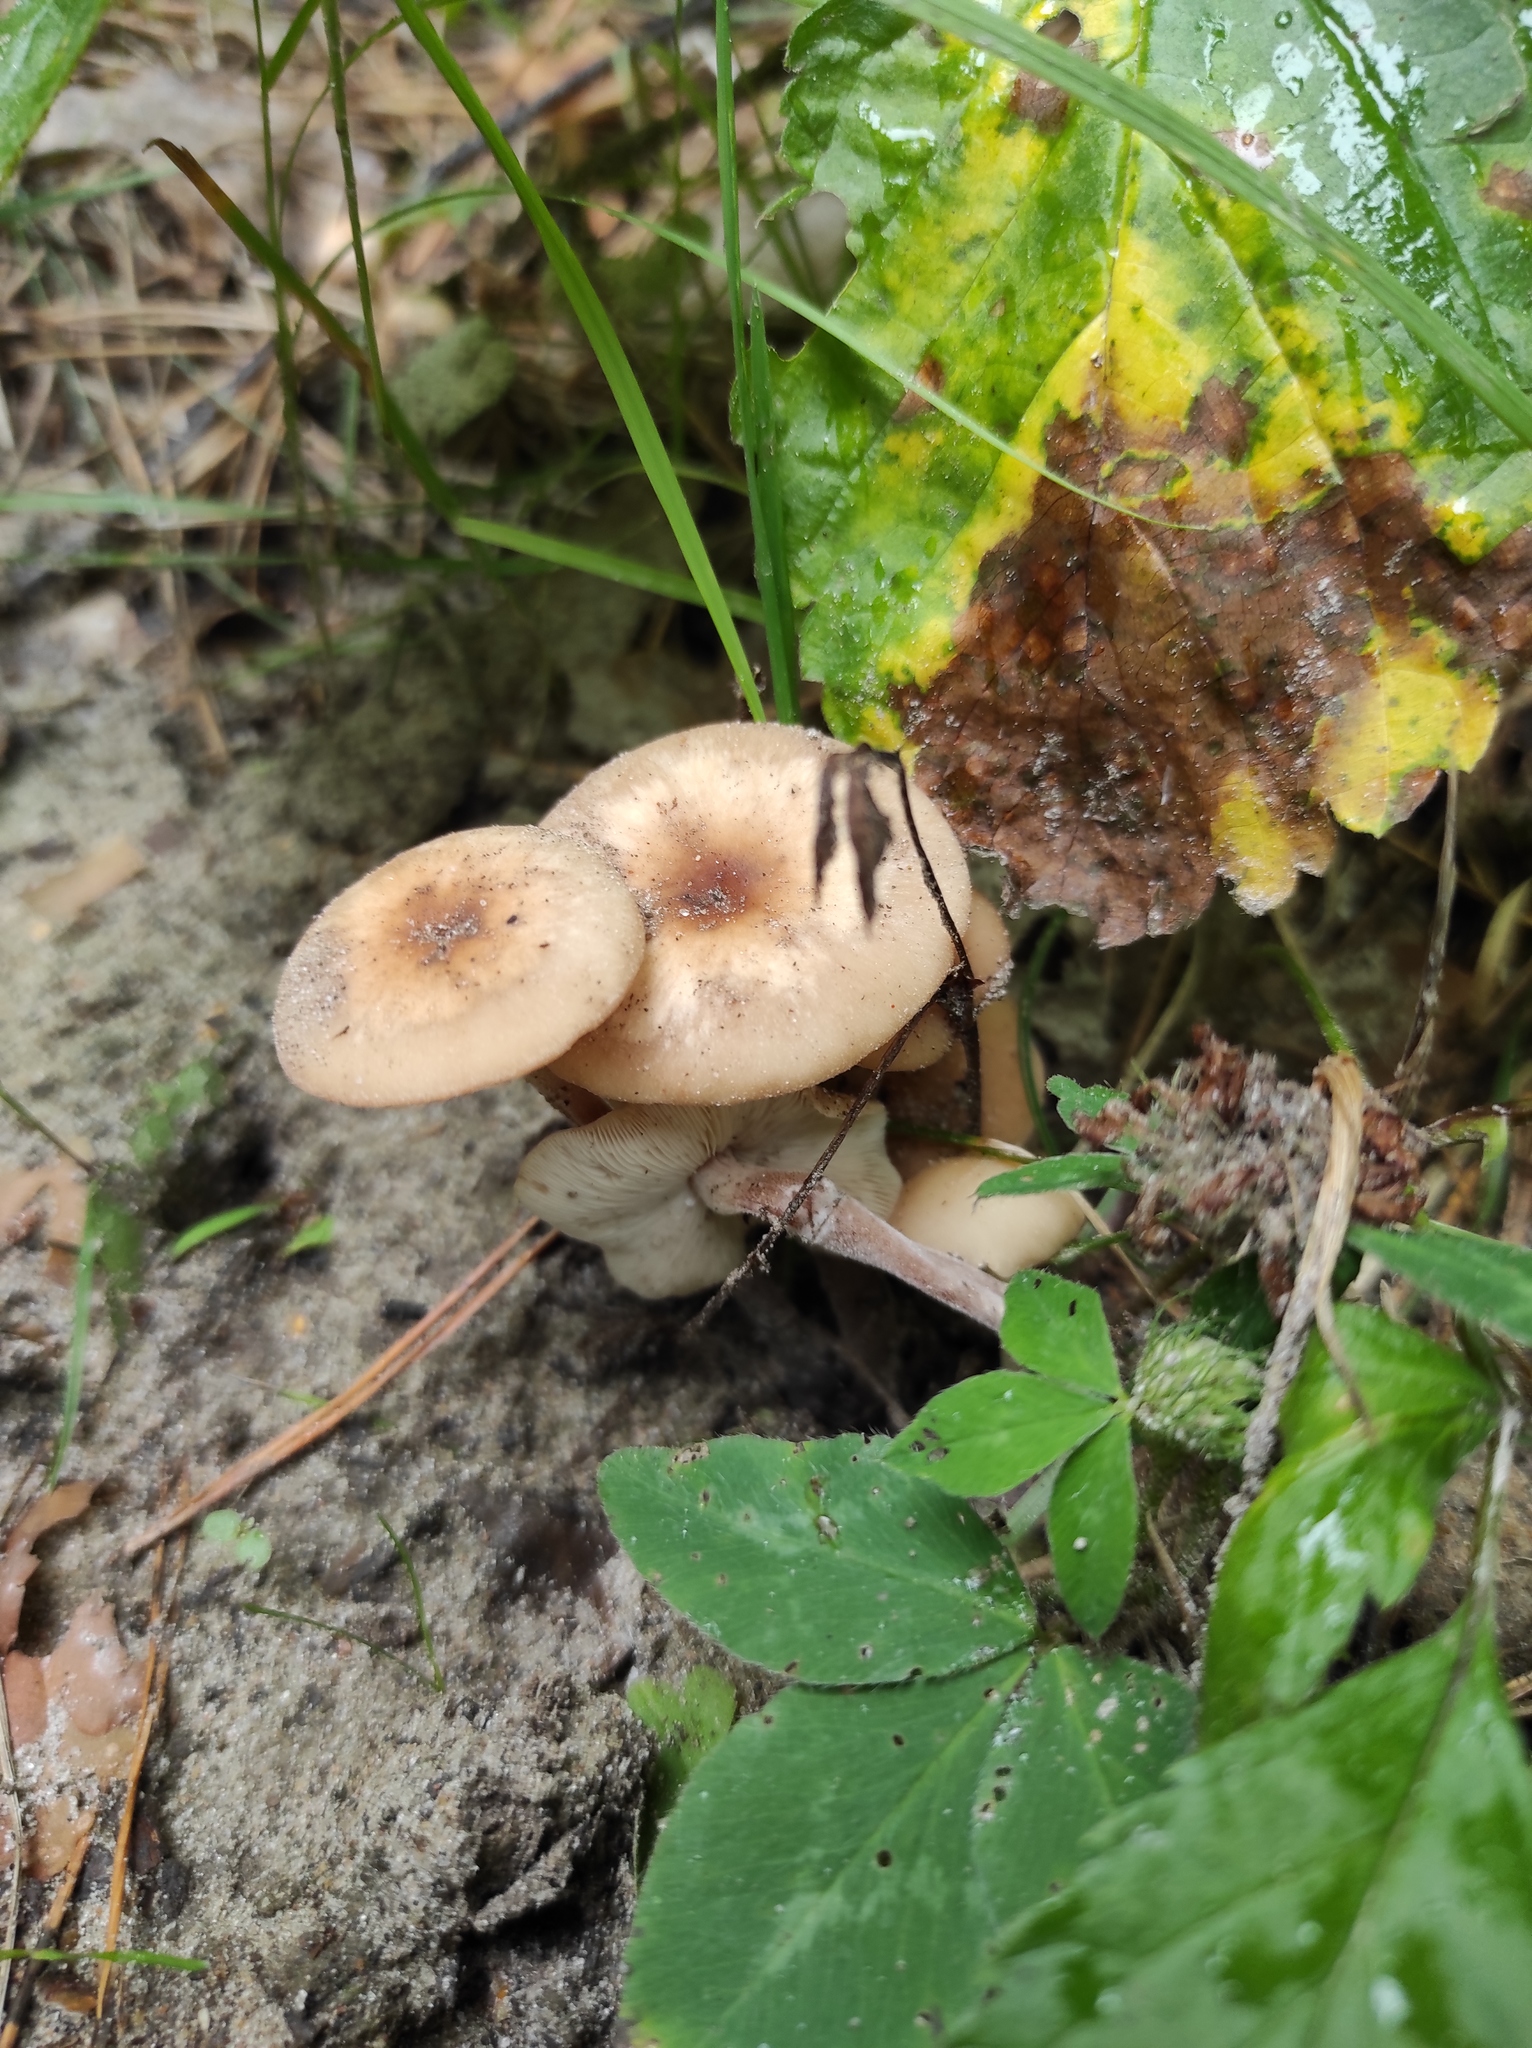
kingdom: Fungi
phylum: Basidiomycota
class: Agaricomycetes
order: Agaricales
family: Strophariaceae
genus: Kuehneromyces
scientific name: Kuehneromyces mutabilis
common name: Sheathed woodtuft
